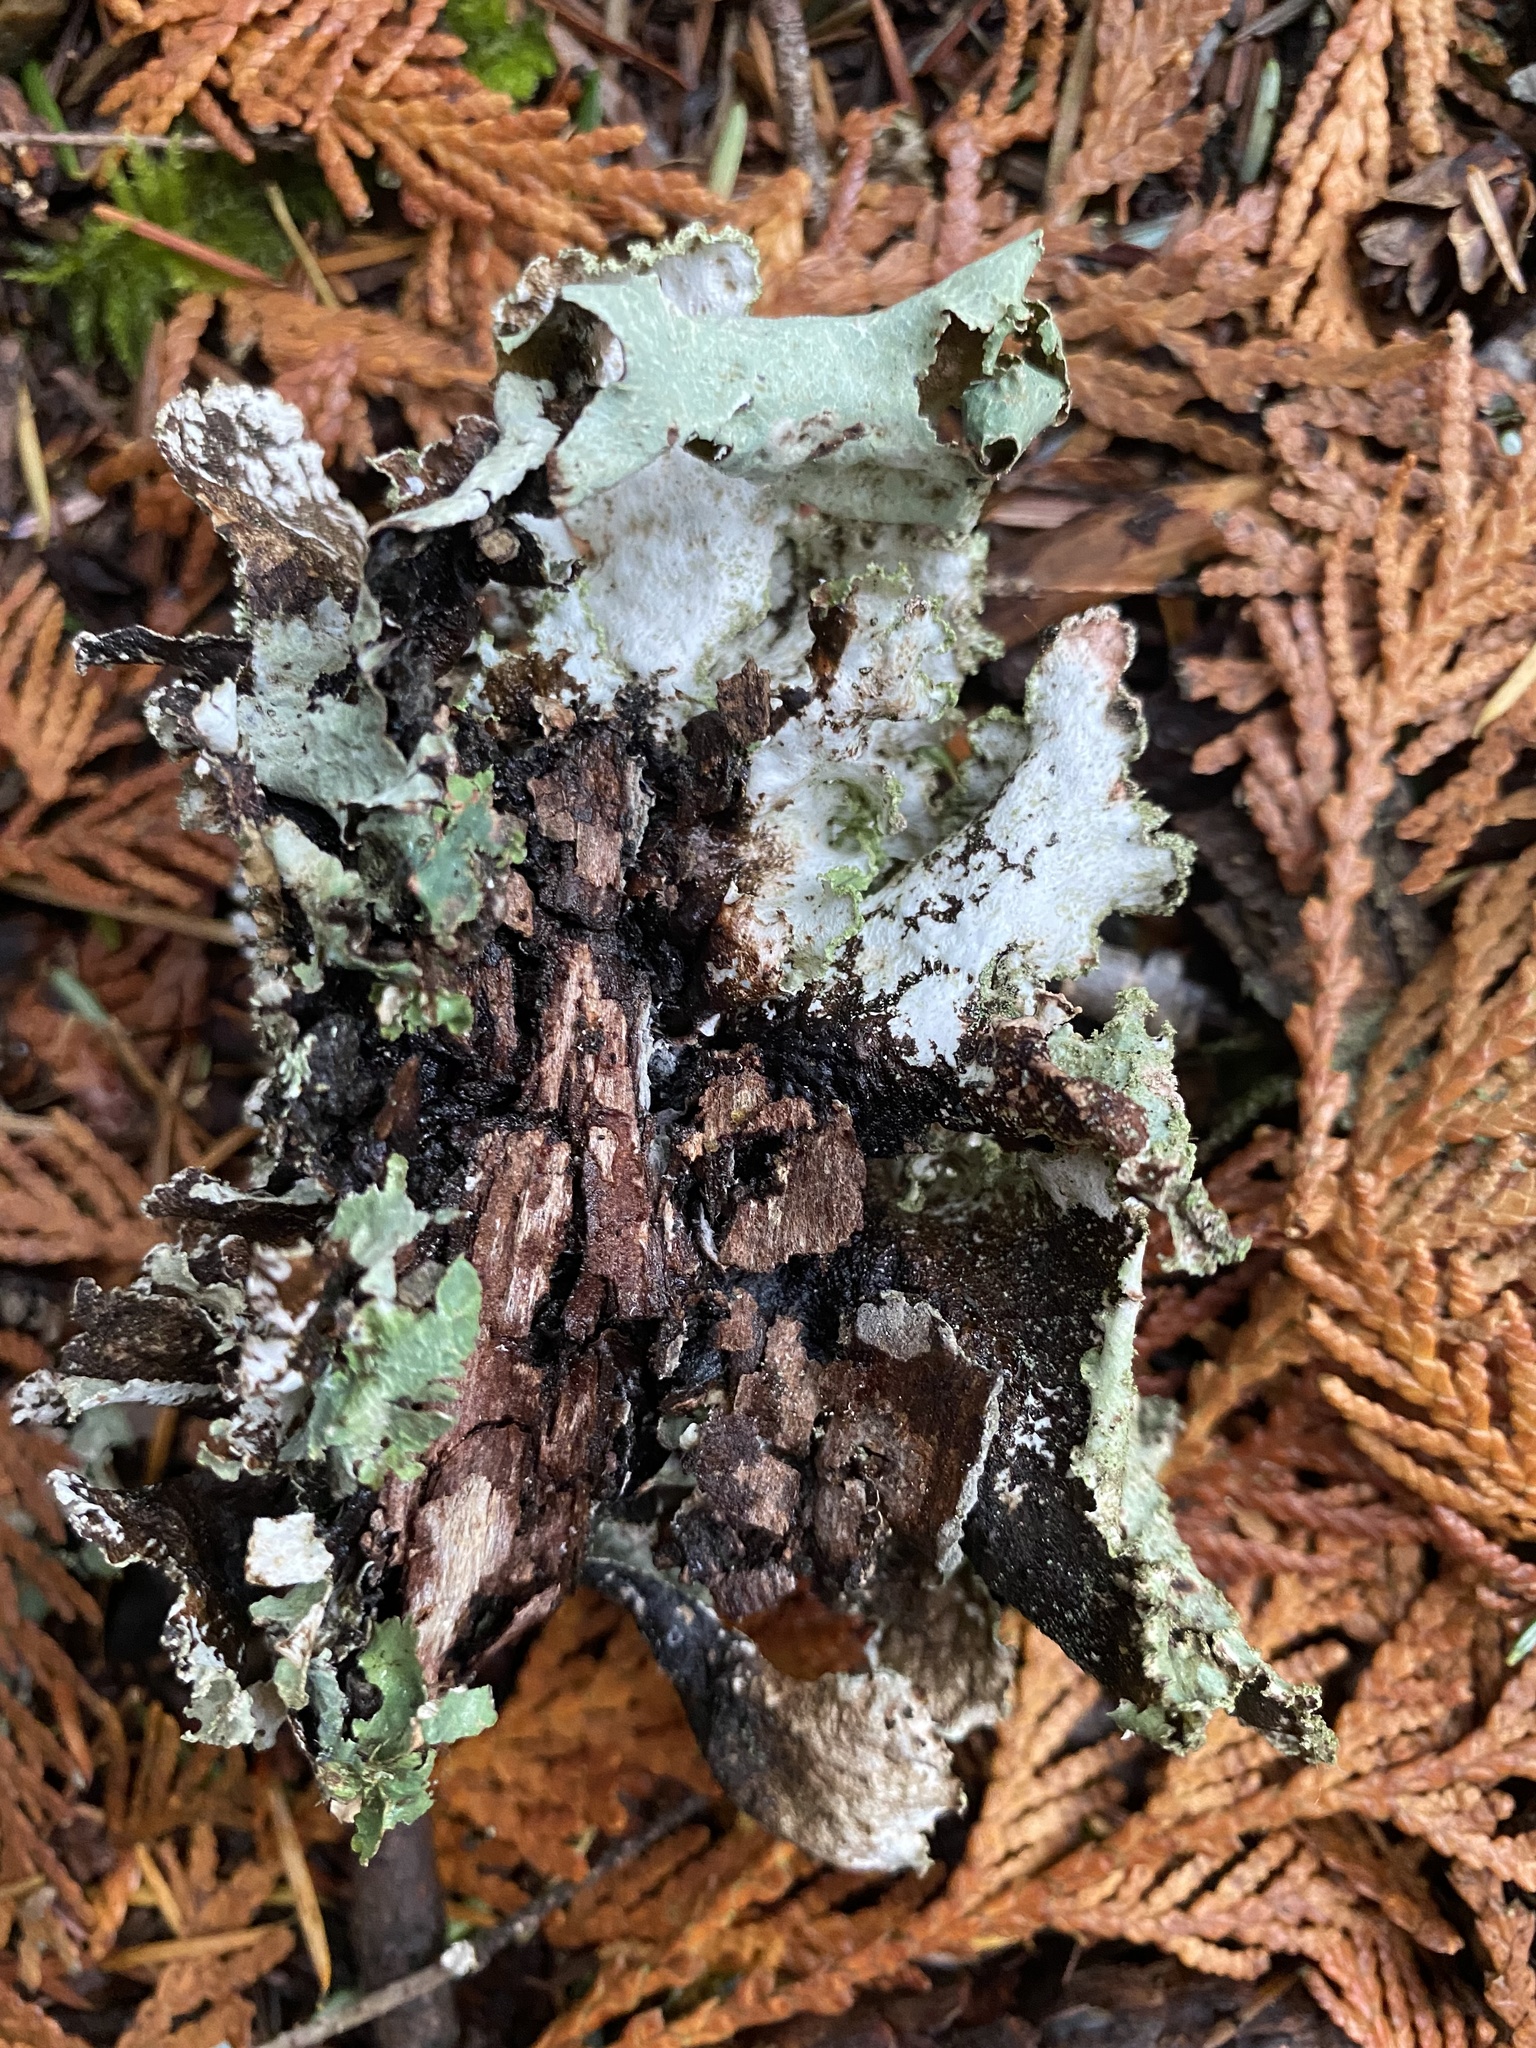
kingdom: Fungi
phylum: Ascomycota
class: Lecanoromycetes
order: Lecanorales
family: Parmeliaceae
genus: Platismatia
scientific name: Platismatia glauca
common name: Varied rag lichen
